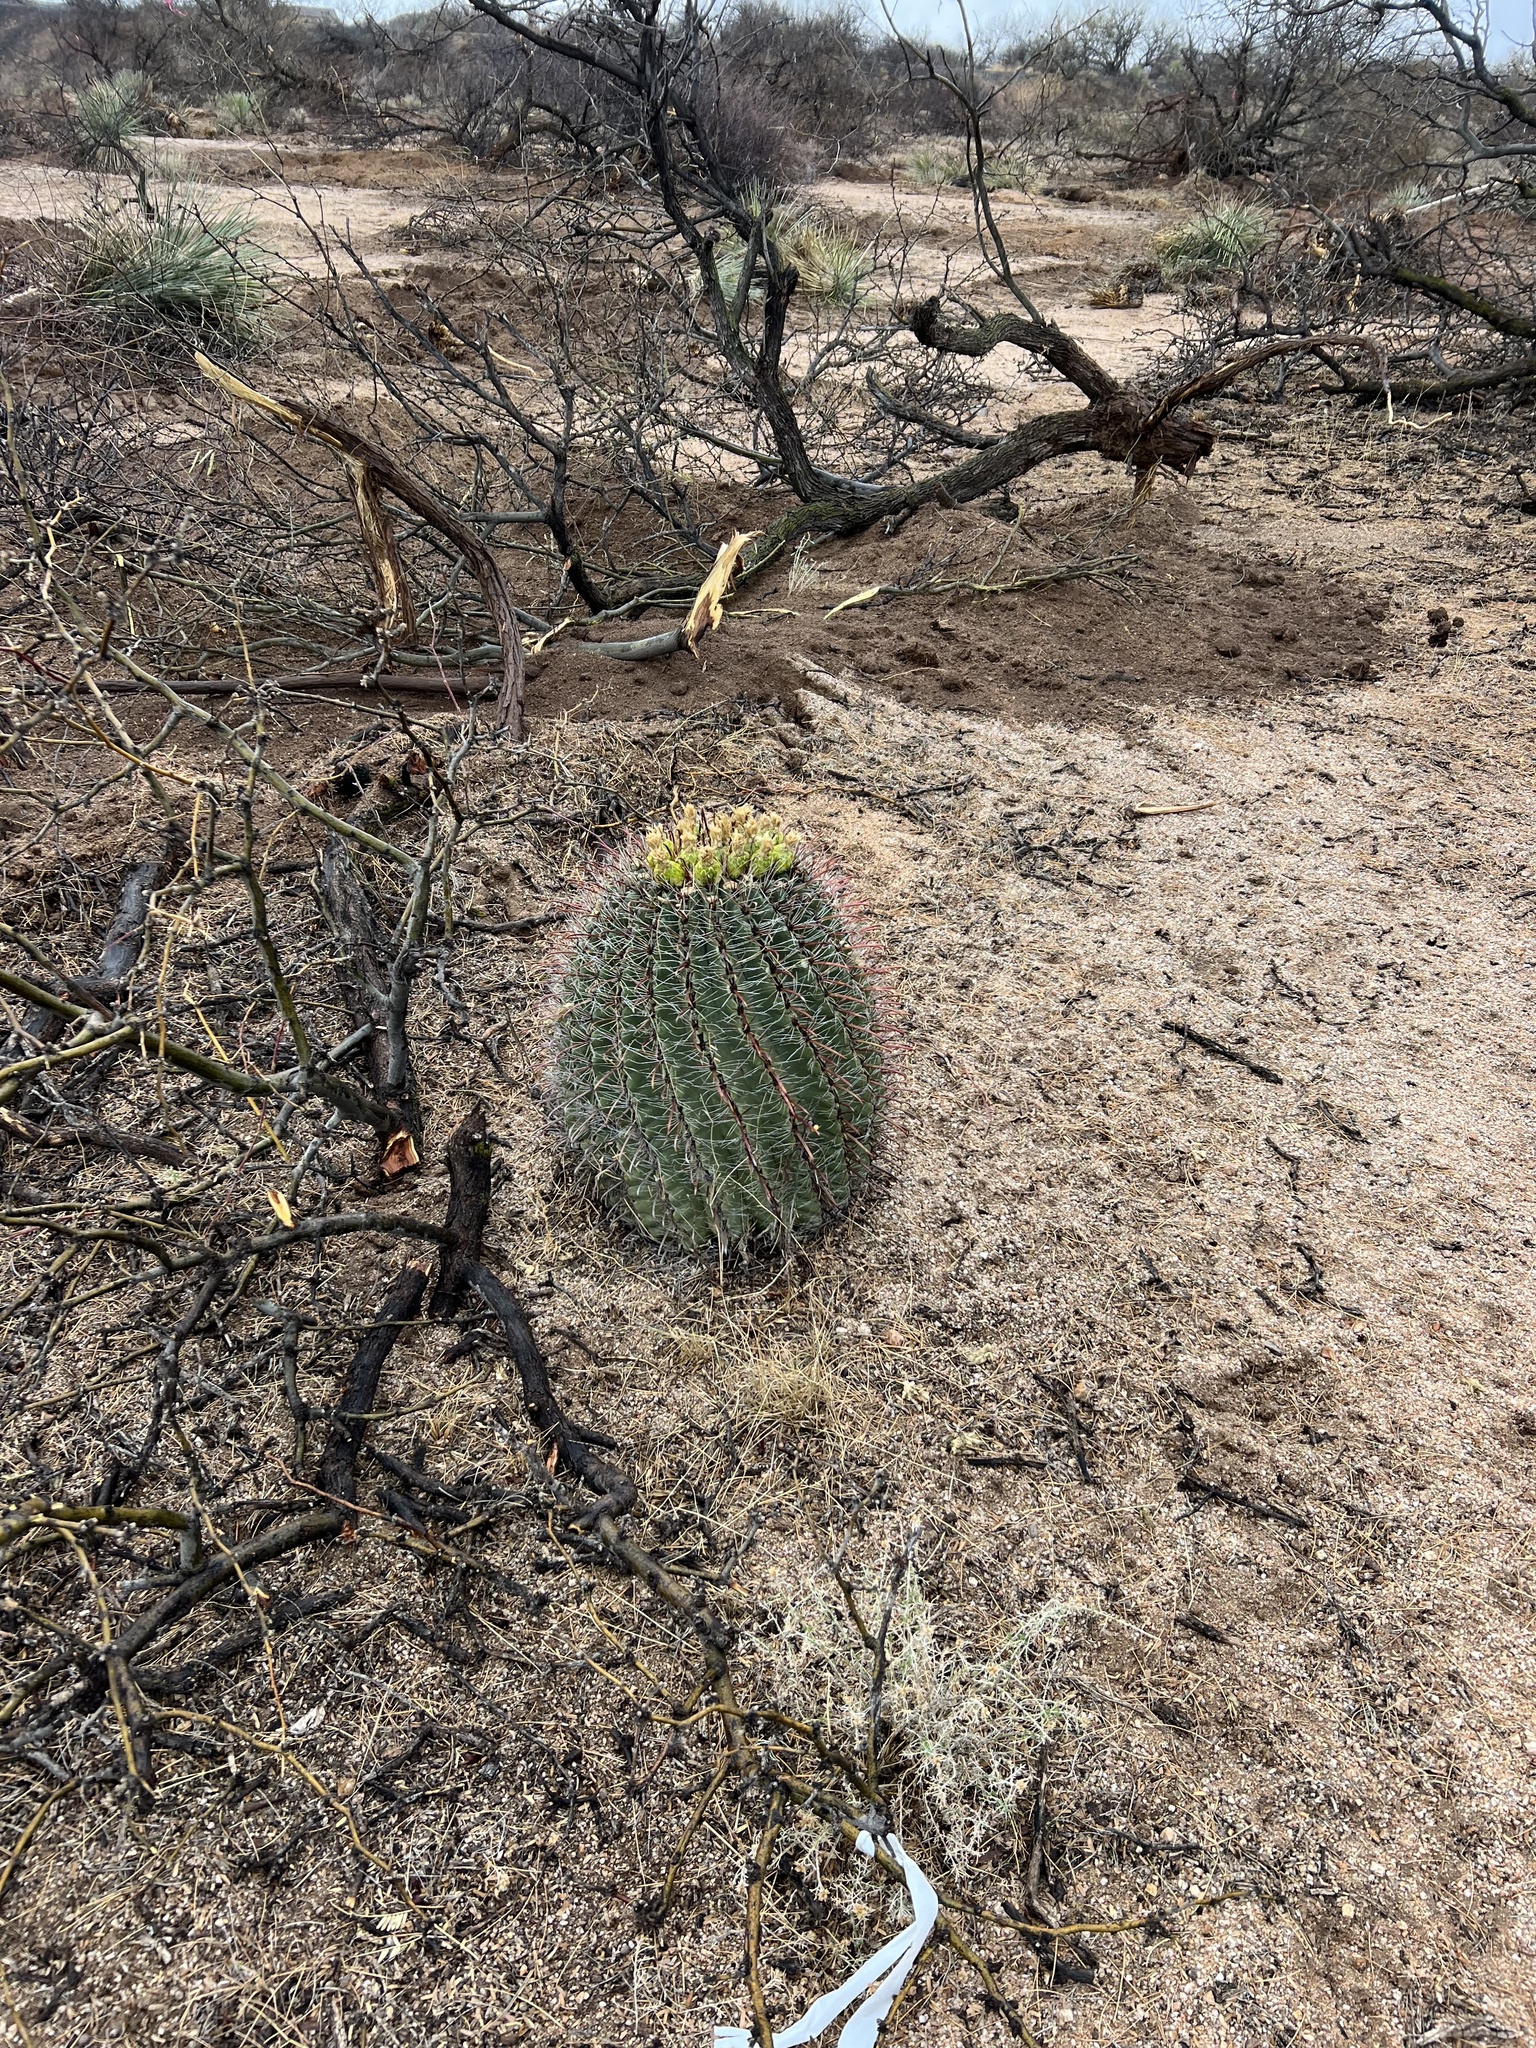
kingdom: Plantae
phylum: Tracheophyta
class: Magnoliopsida
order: Caryophyllales
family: Cactaceae
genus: Ferocactus
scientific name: Ferocactus wislizeni
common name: Candy barrel cactus
